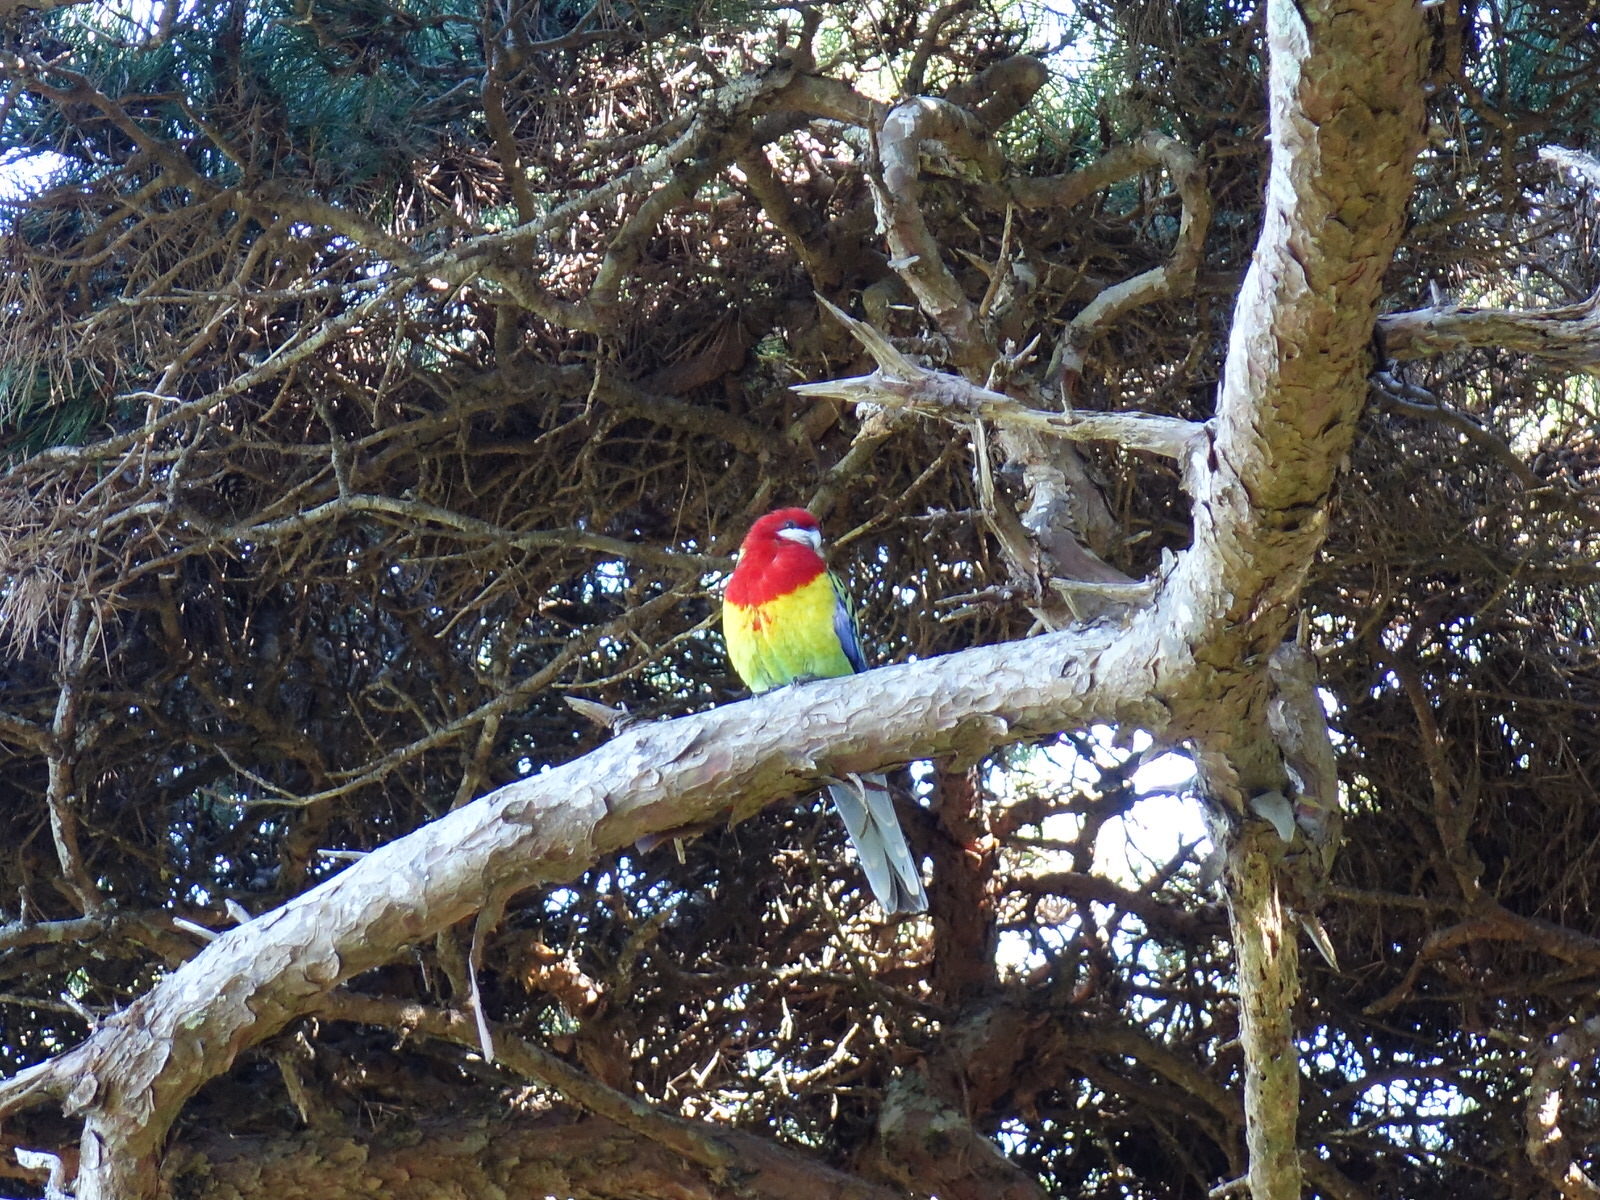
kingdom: Animalia
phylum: Chordata
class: Aves
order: Psittaciformes
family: Psittacidae
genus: Platycercus
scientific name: Platycercus eximius
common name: Eastern rosella
